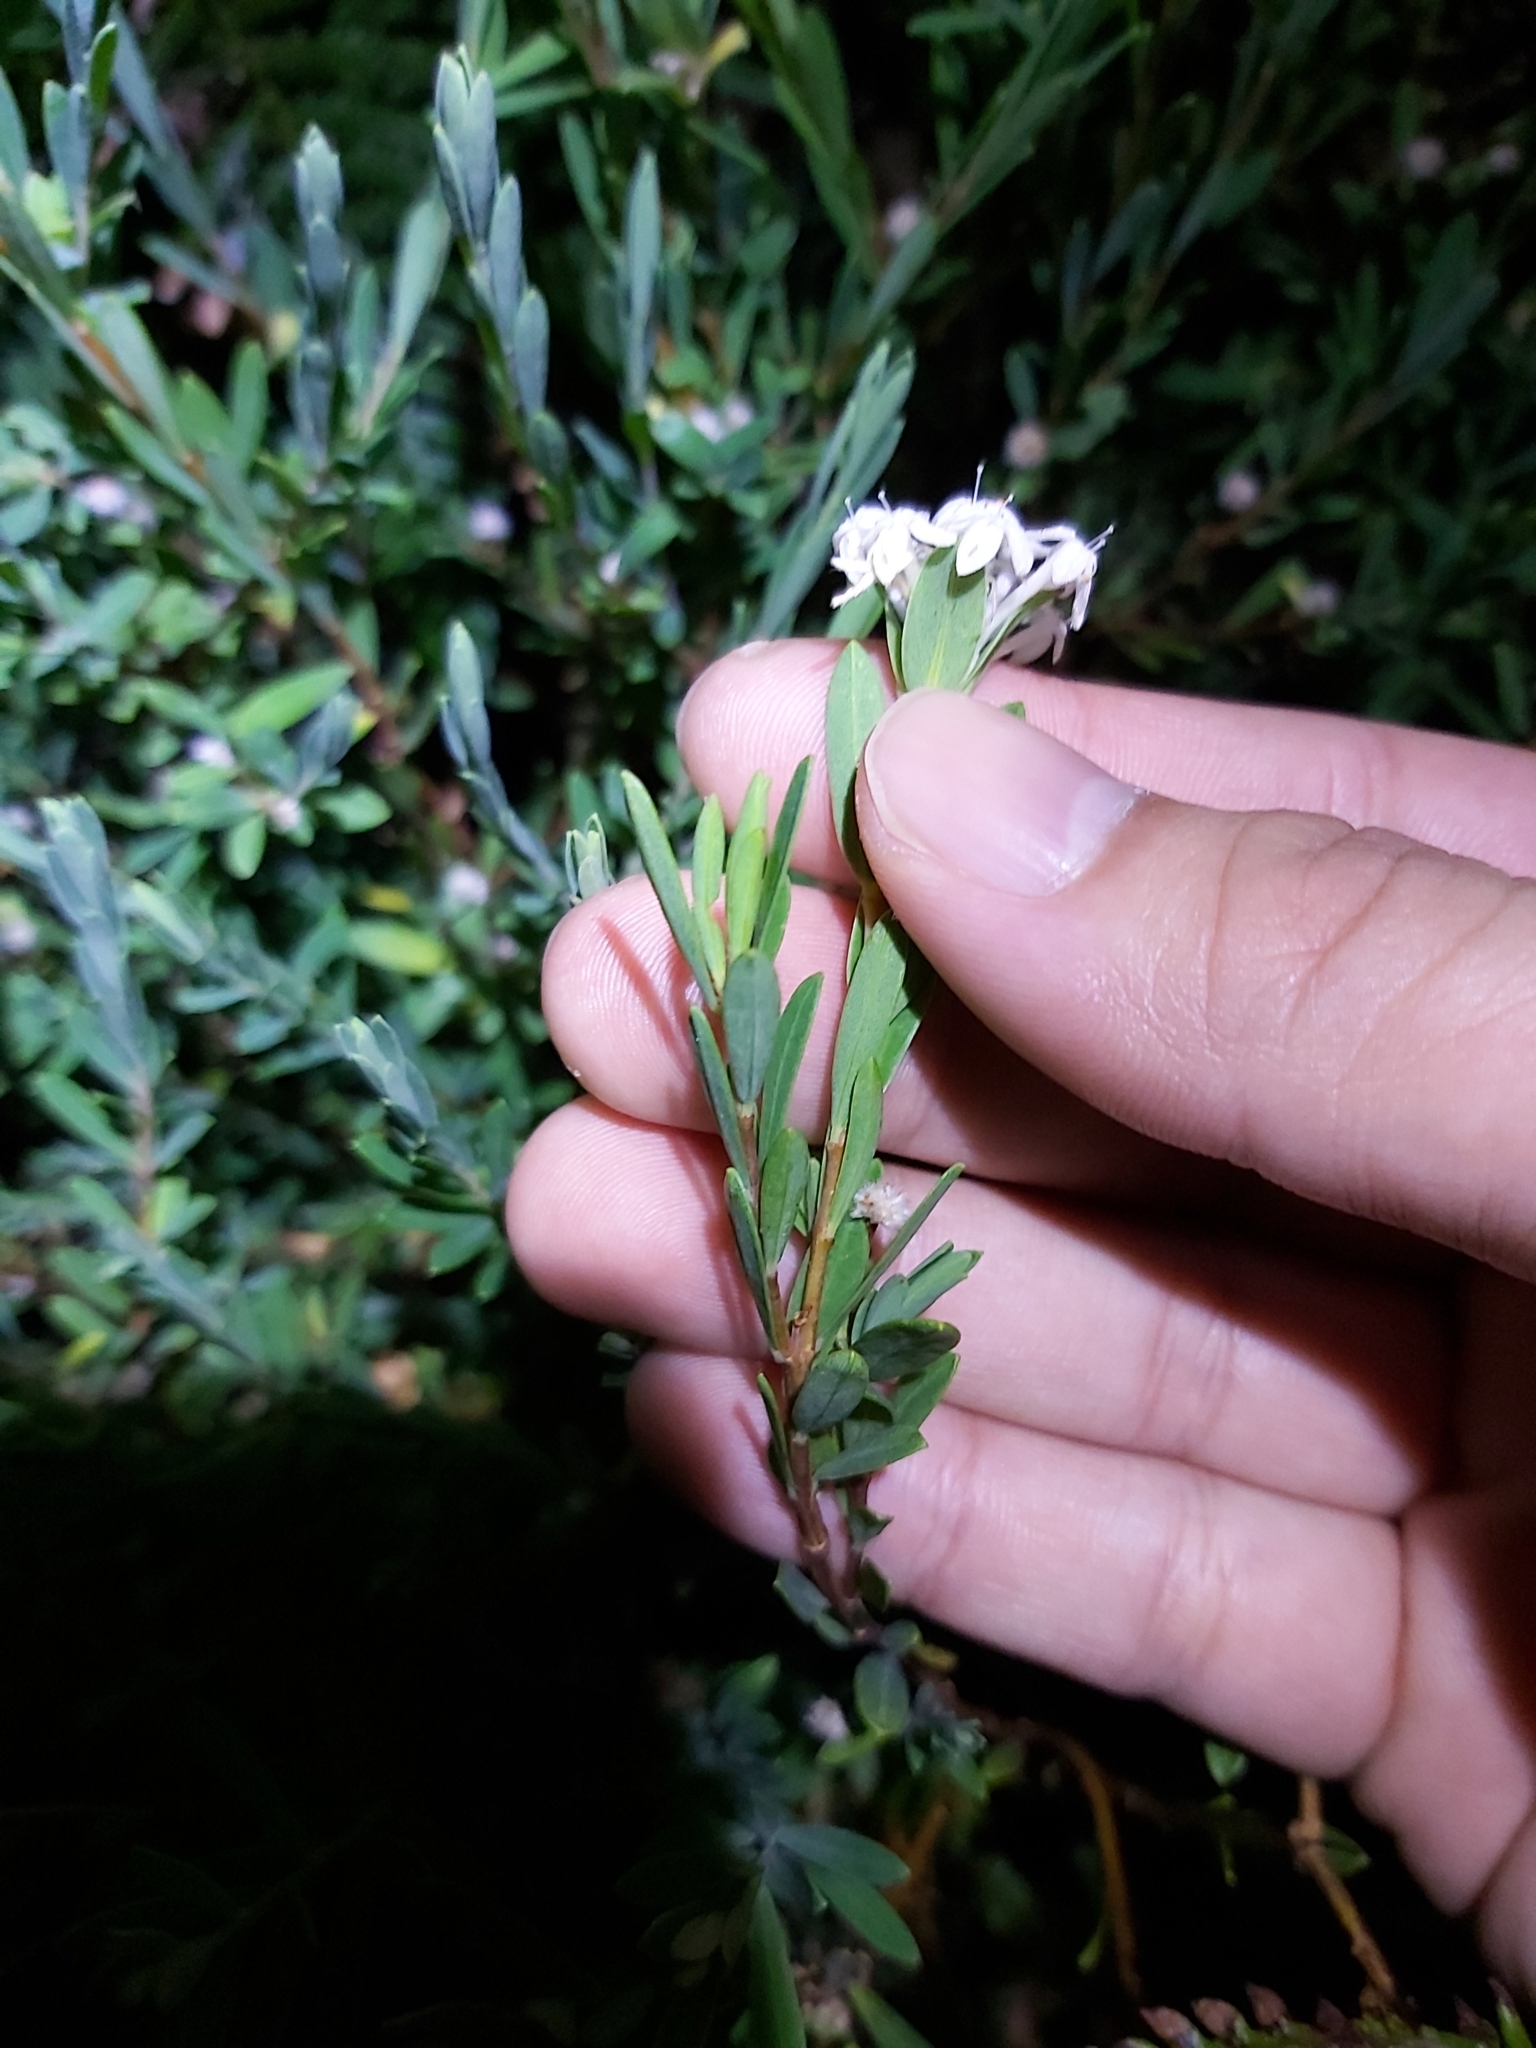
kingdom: Plantae
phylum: Tracheophyta
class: Magnoliopsida
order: Malvales
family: Thymelaeaceae
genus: Pimelea
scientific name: Pimelea linifolia
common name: Queen-of-the-bush
